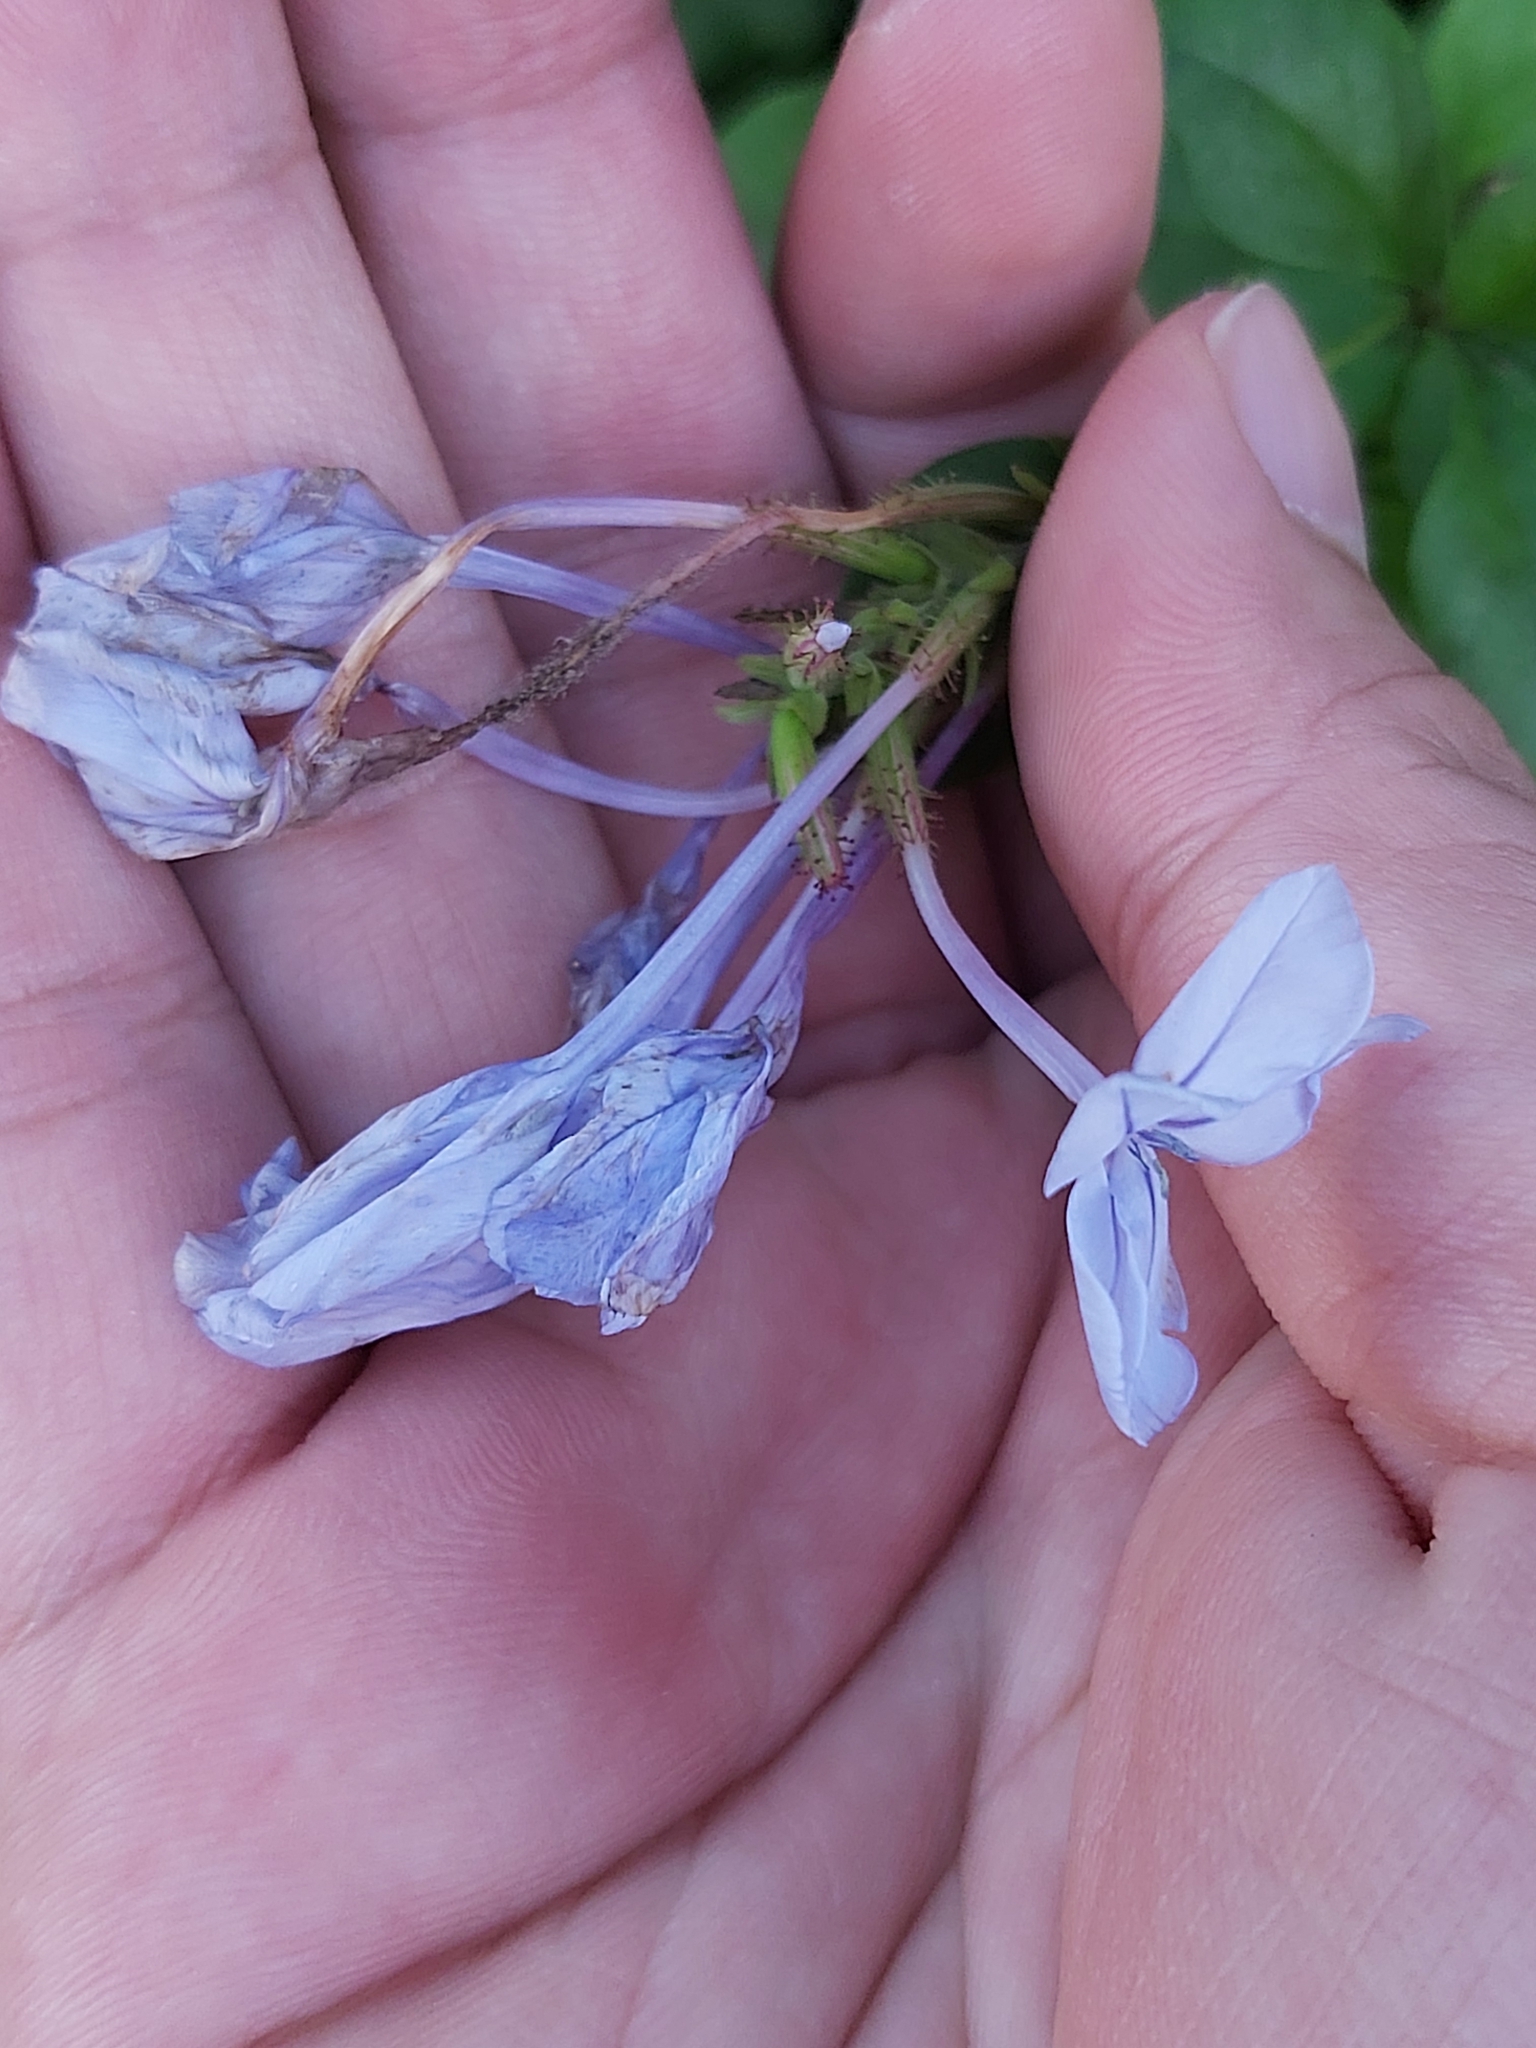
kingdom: Plantae
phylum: Tracheophyta
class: Magnoliopsida
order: Caryophyllales
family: Plumbaginaceae
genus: Plumbago
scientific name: Plumbago auriculata
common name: Cape leadwort
